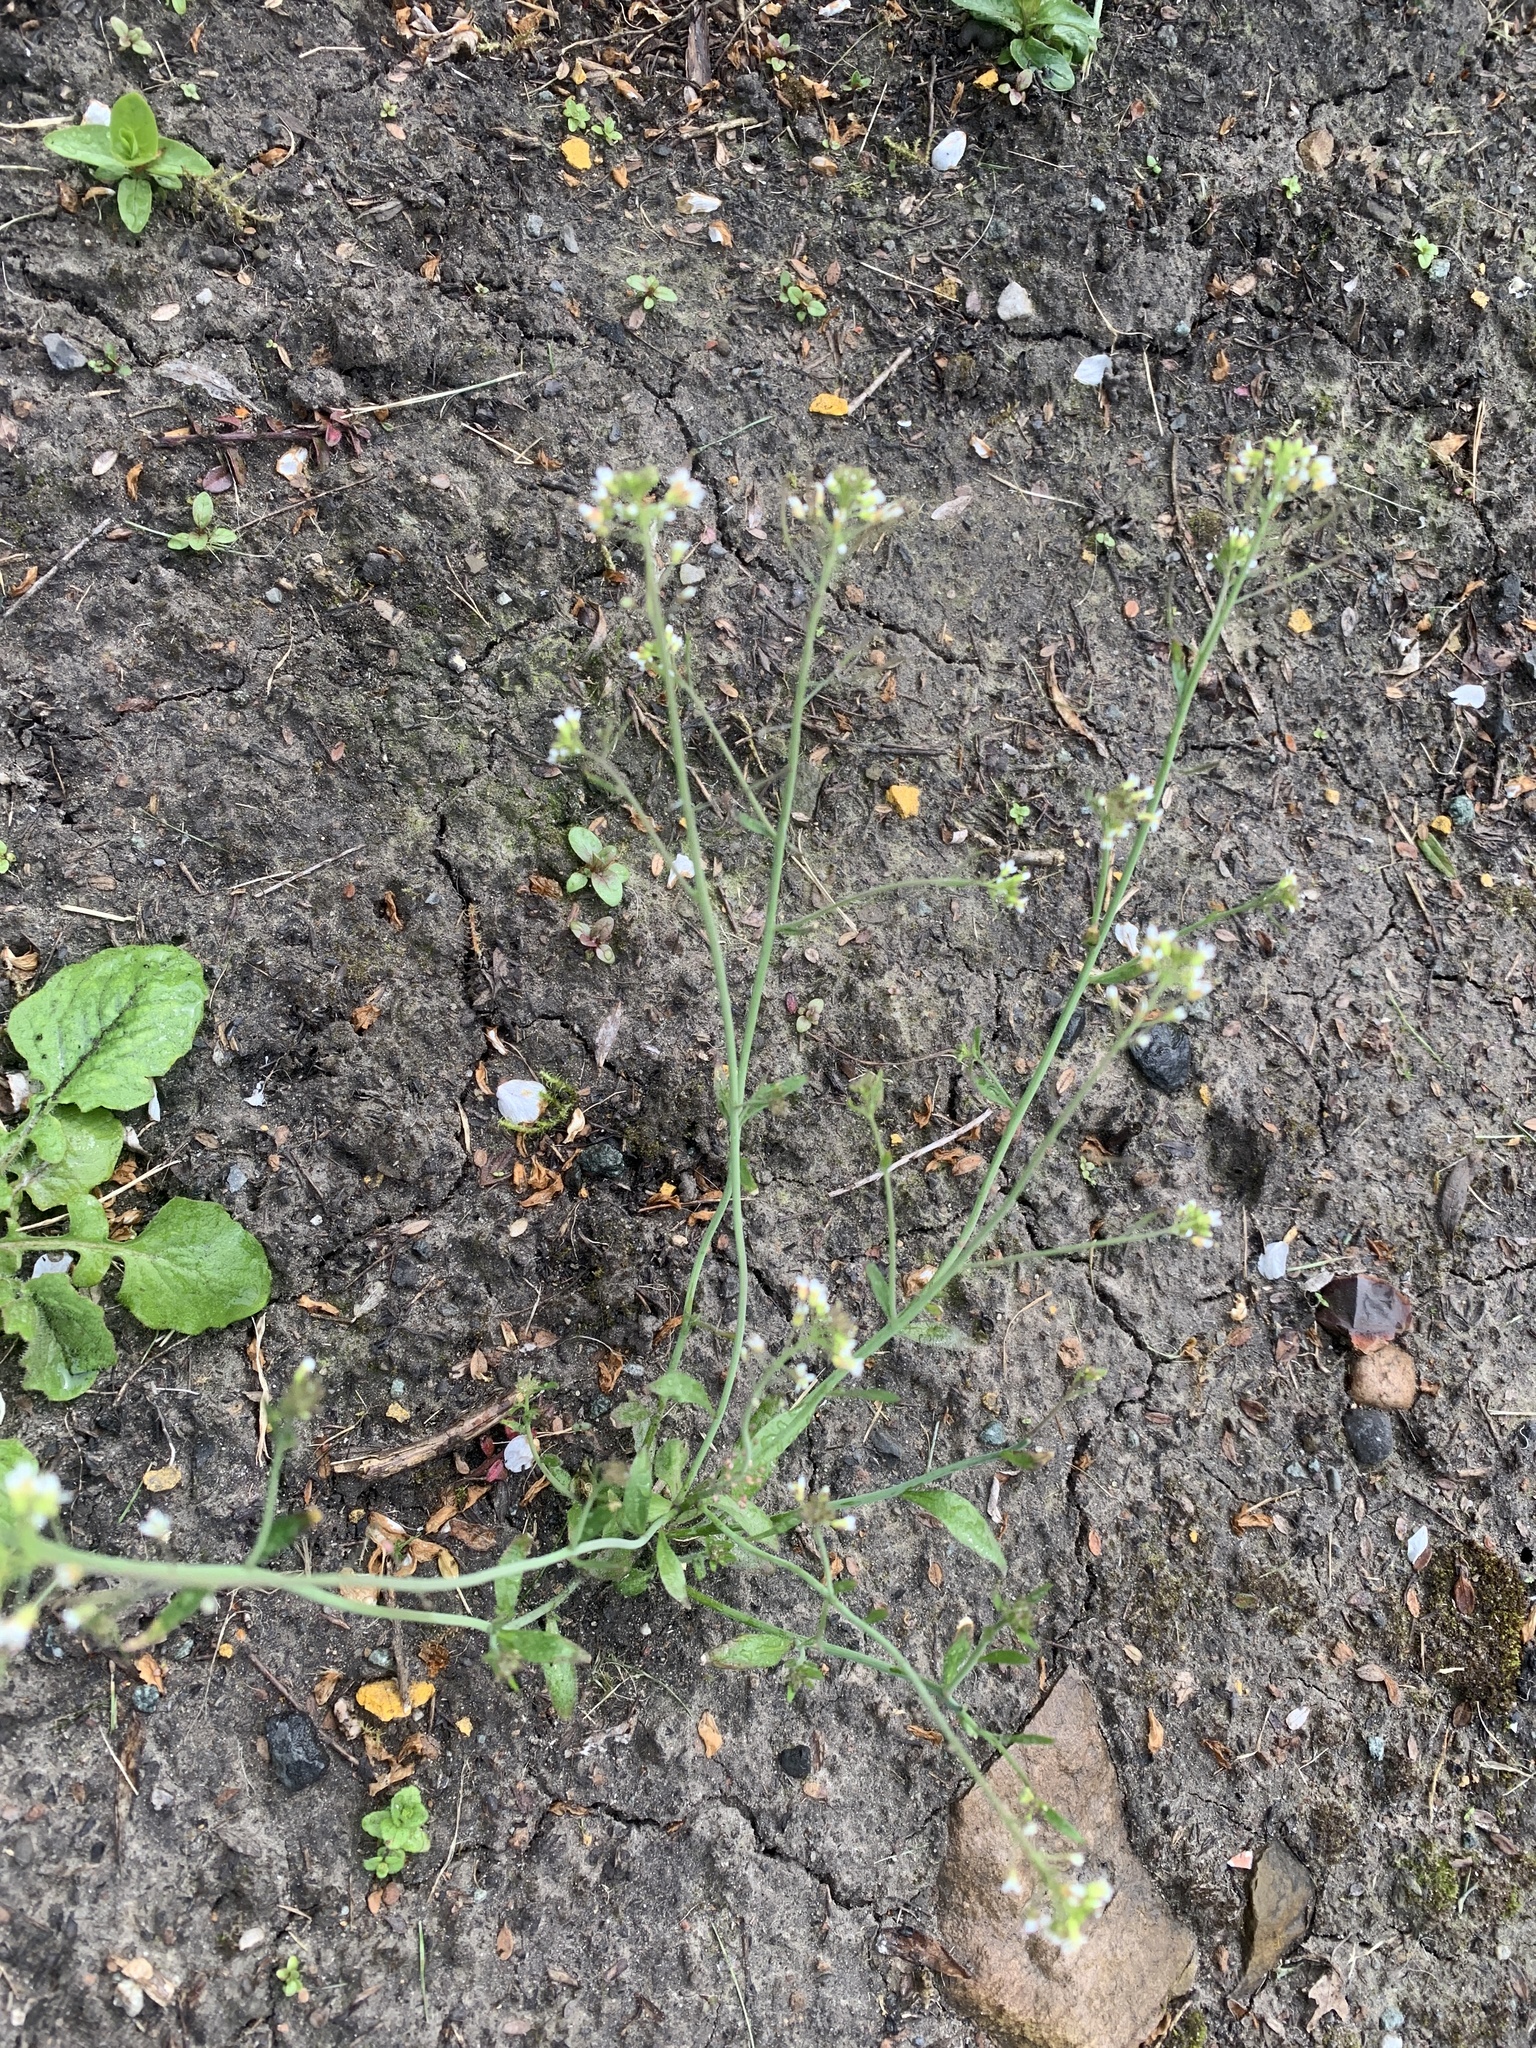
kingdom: Plantae
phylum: Tracheophyta
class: Magnoliopsida
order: Brassicales
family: Brassicaceae
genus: Arabidopsis
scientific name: Arabidopsis thaliana
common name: Thale cress
